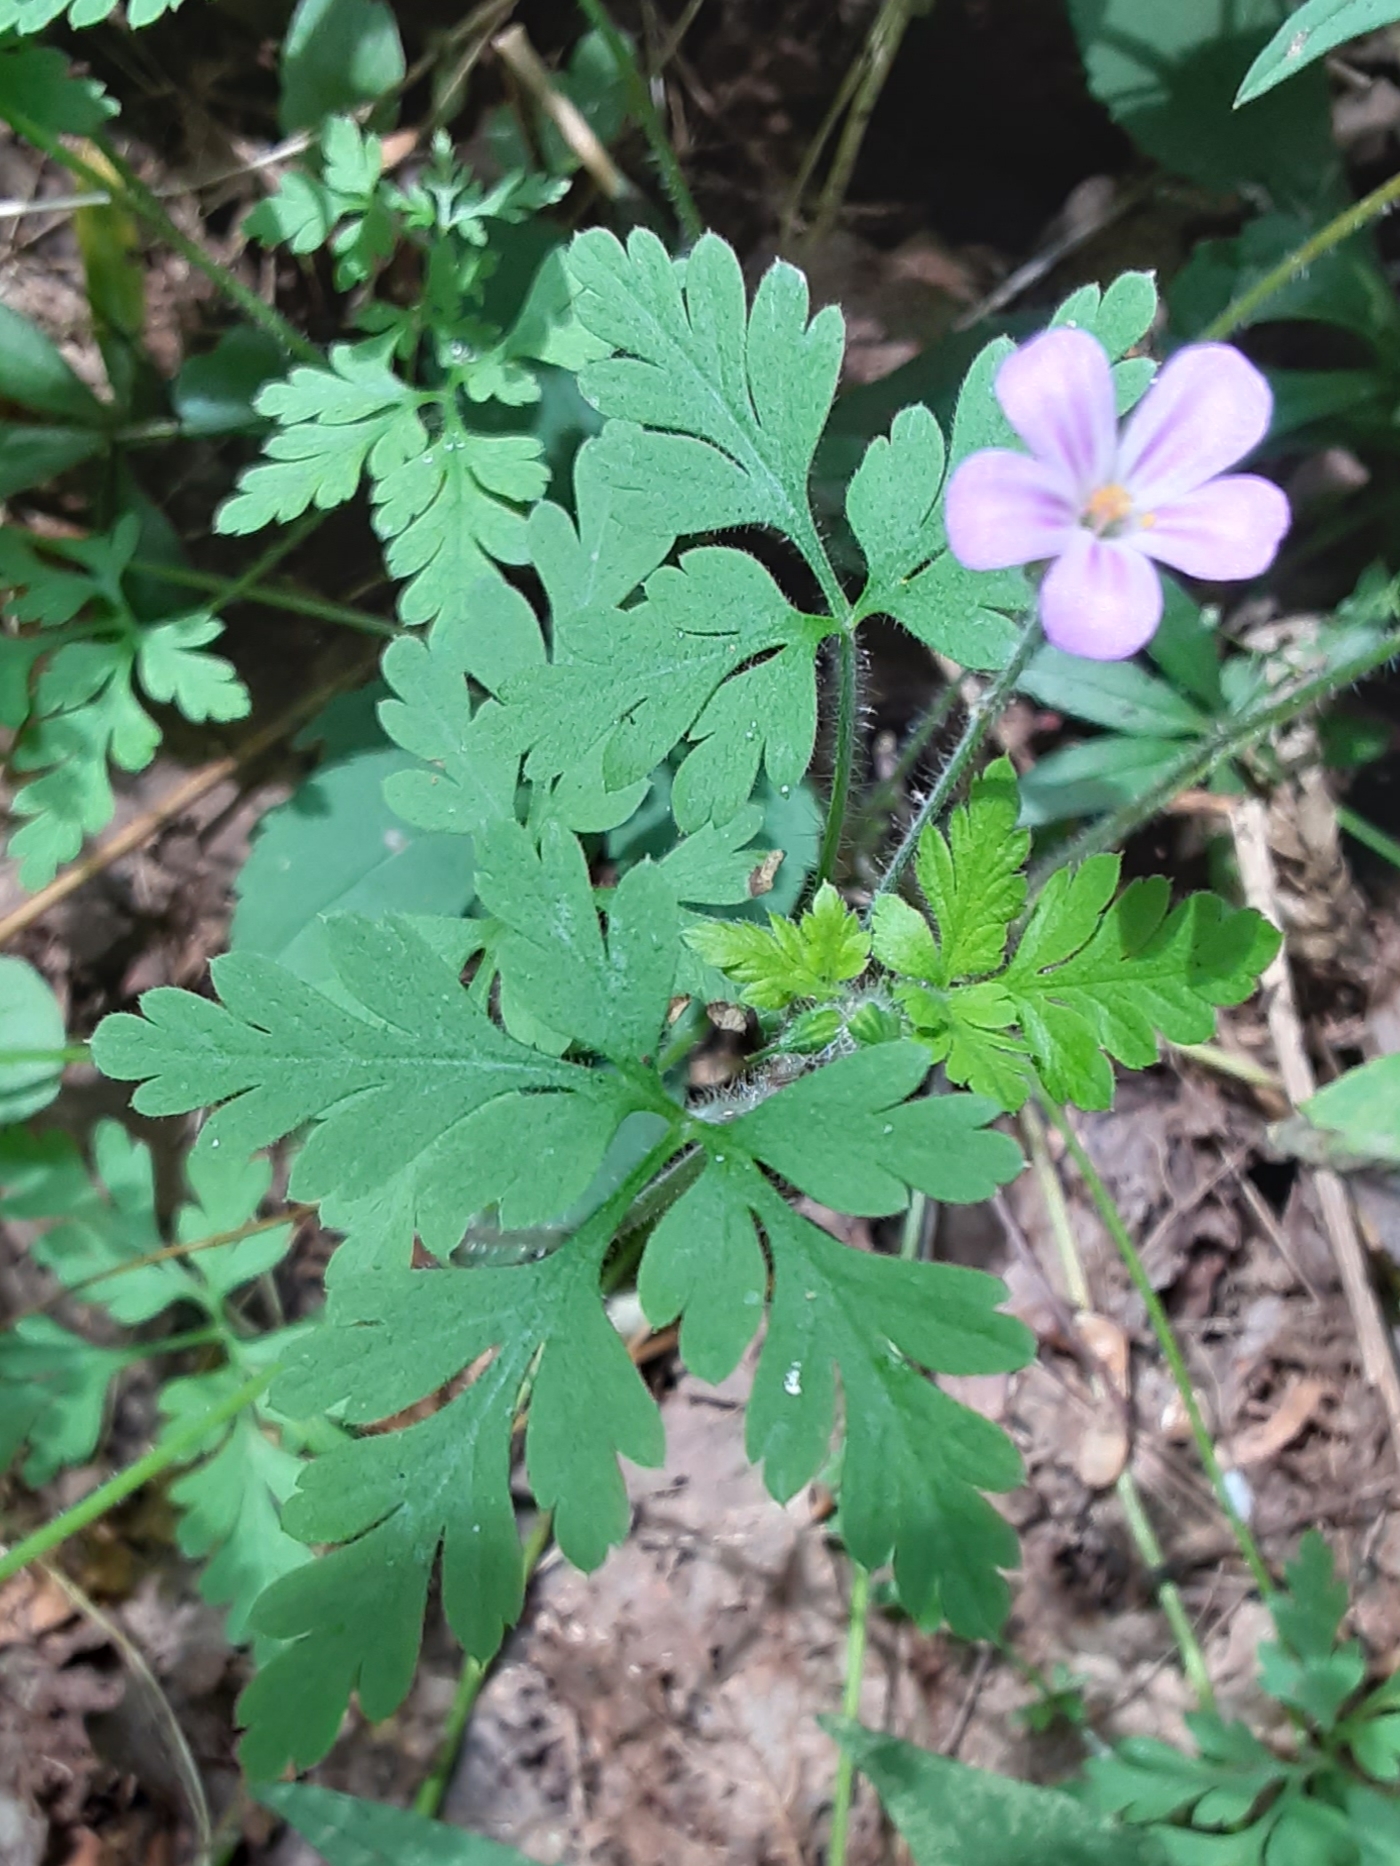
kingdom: Plantae
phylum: Tracheophyta
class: Magnoliopsida
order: Geraniales
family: Geraniaceae
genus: Geranium
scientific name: Geranium robertianum
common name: Herb-robert
